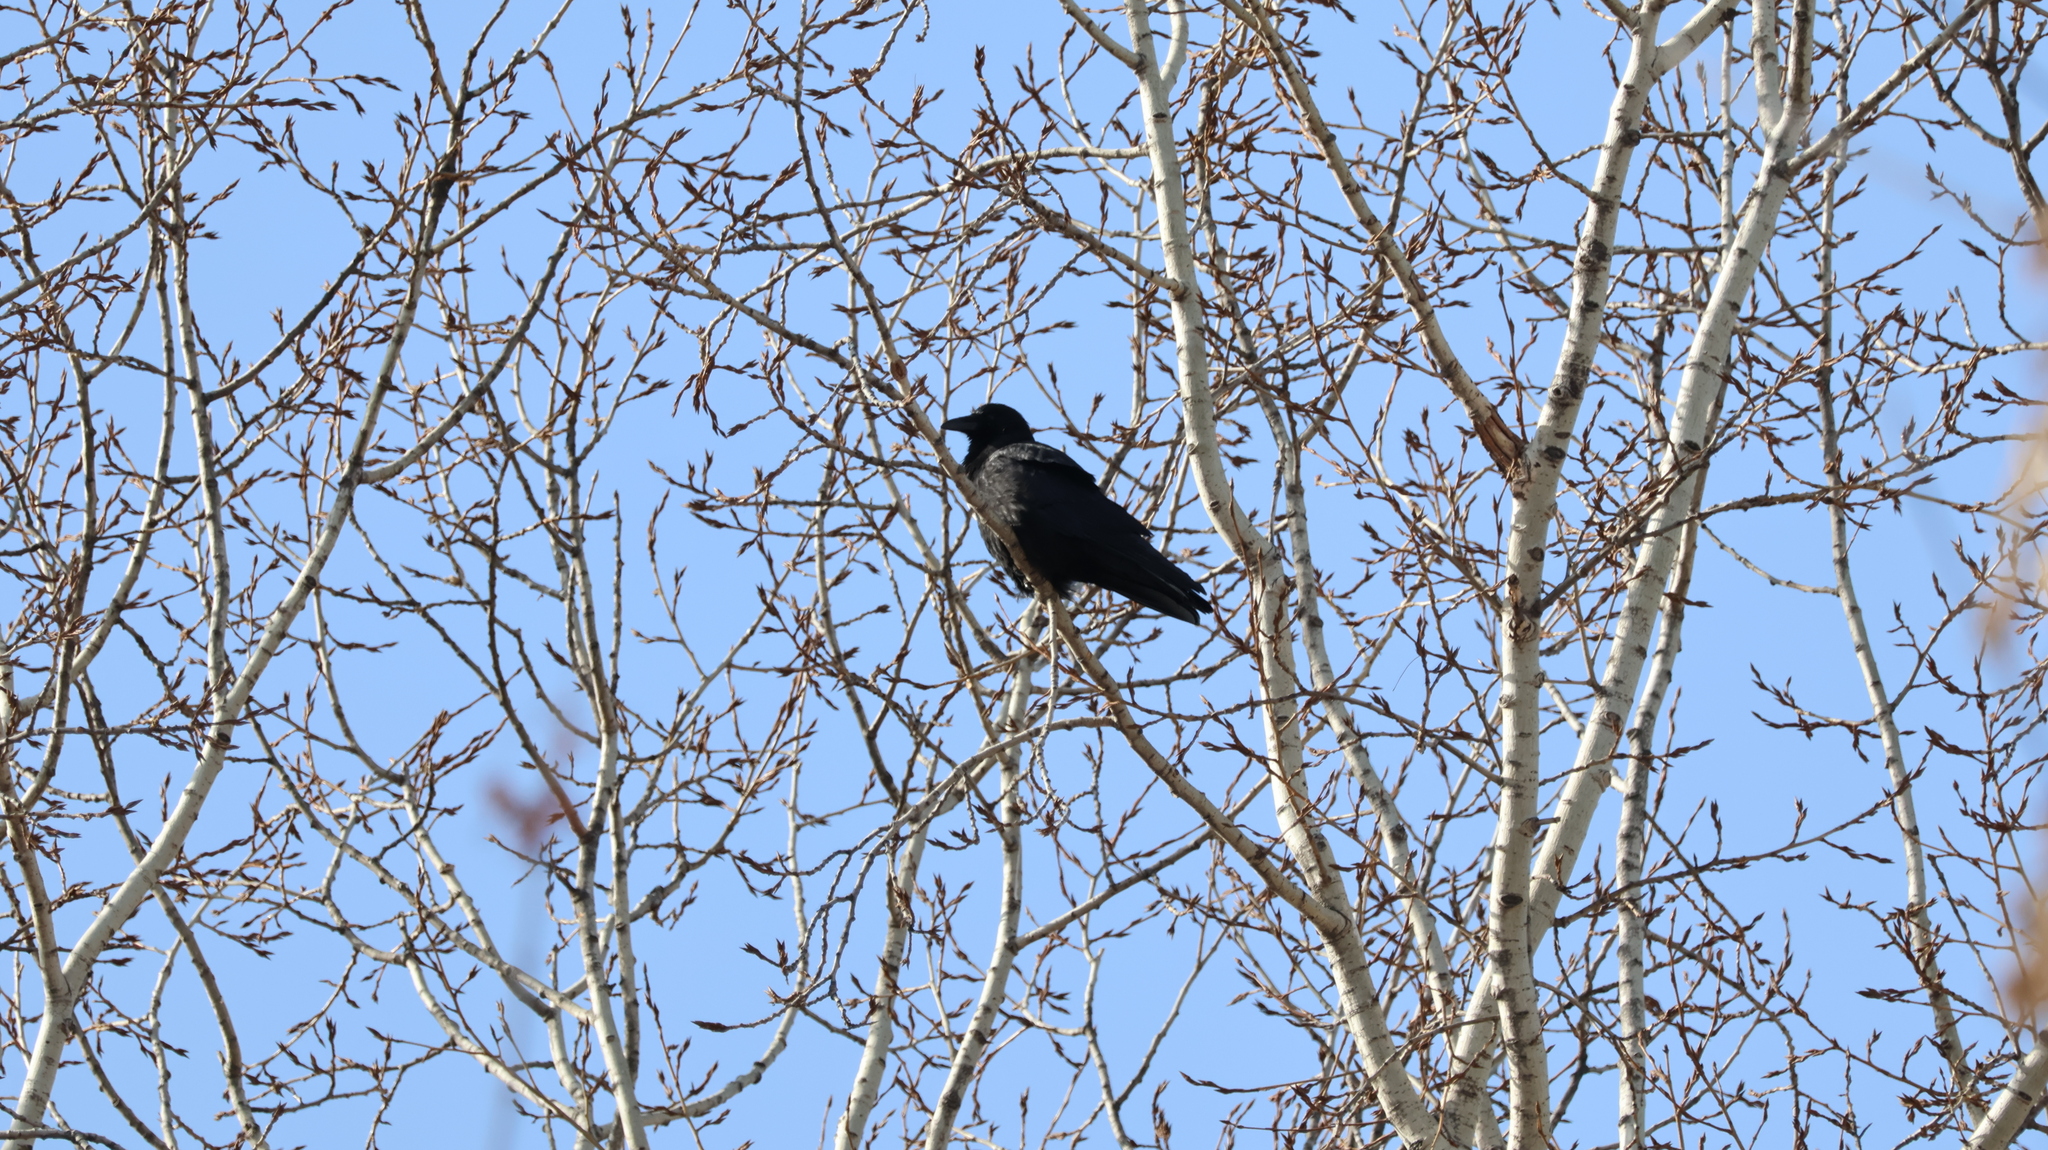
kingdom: Animalia
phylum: Chordata
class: Aves
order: Passeriformes
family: Corvidae
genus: Corvus
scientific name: Corvus corone
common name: Carrion crow
